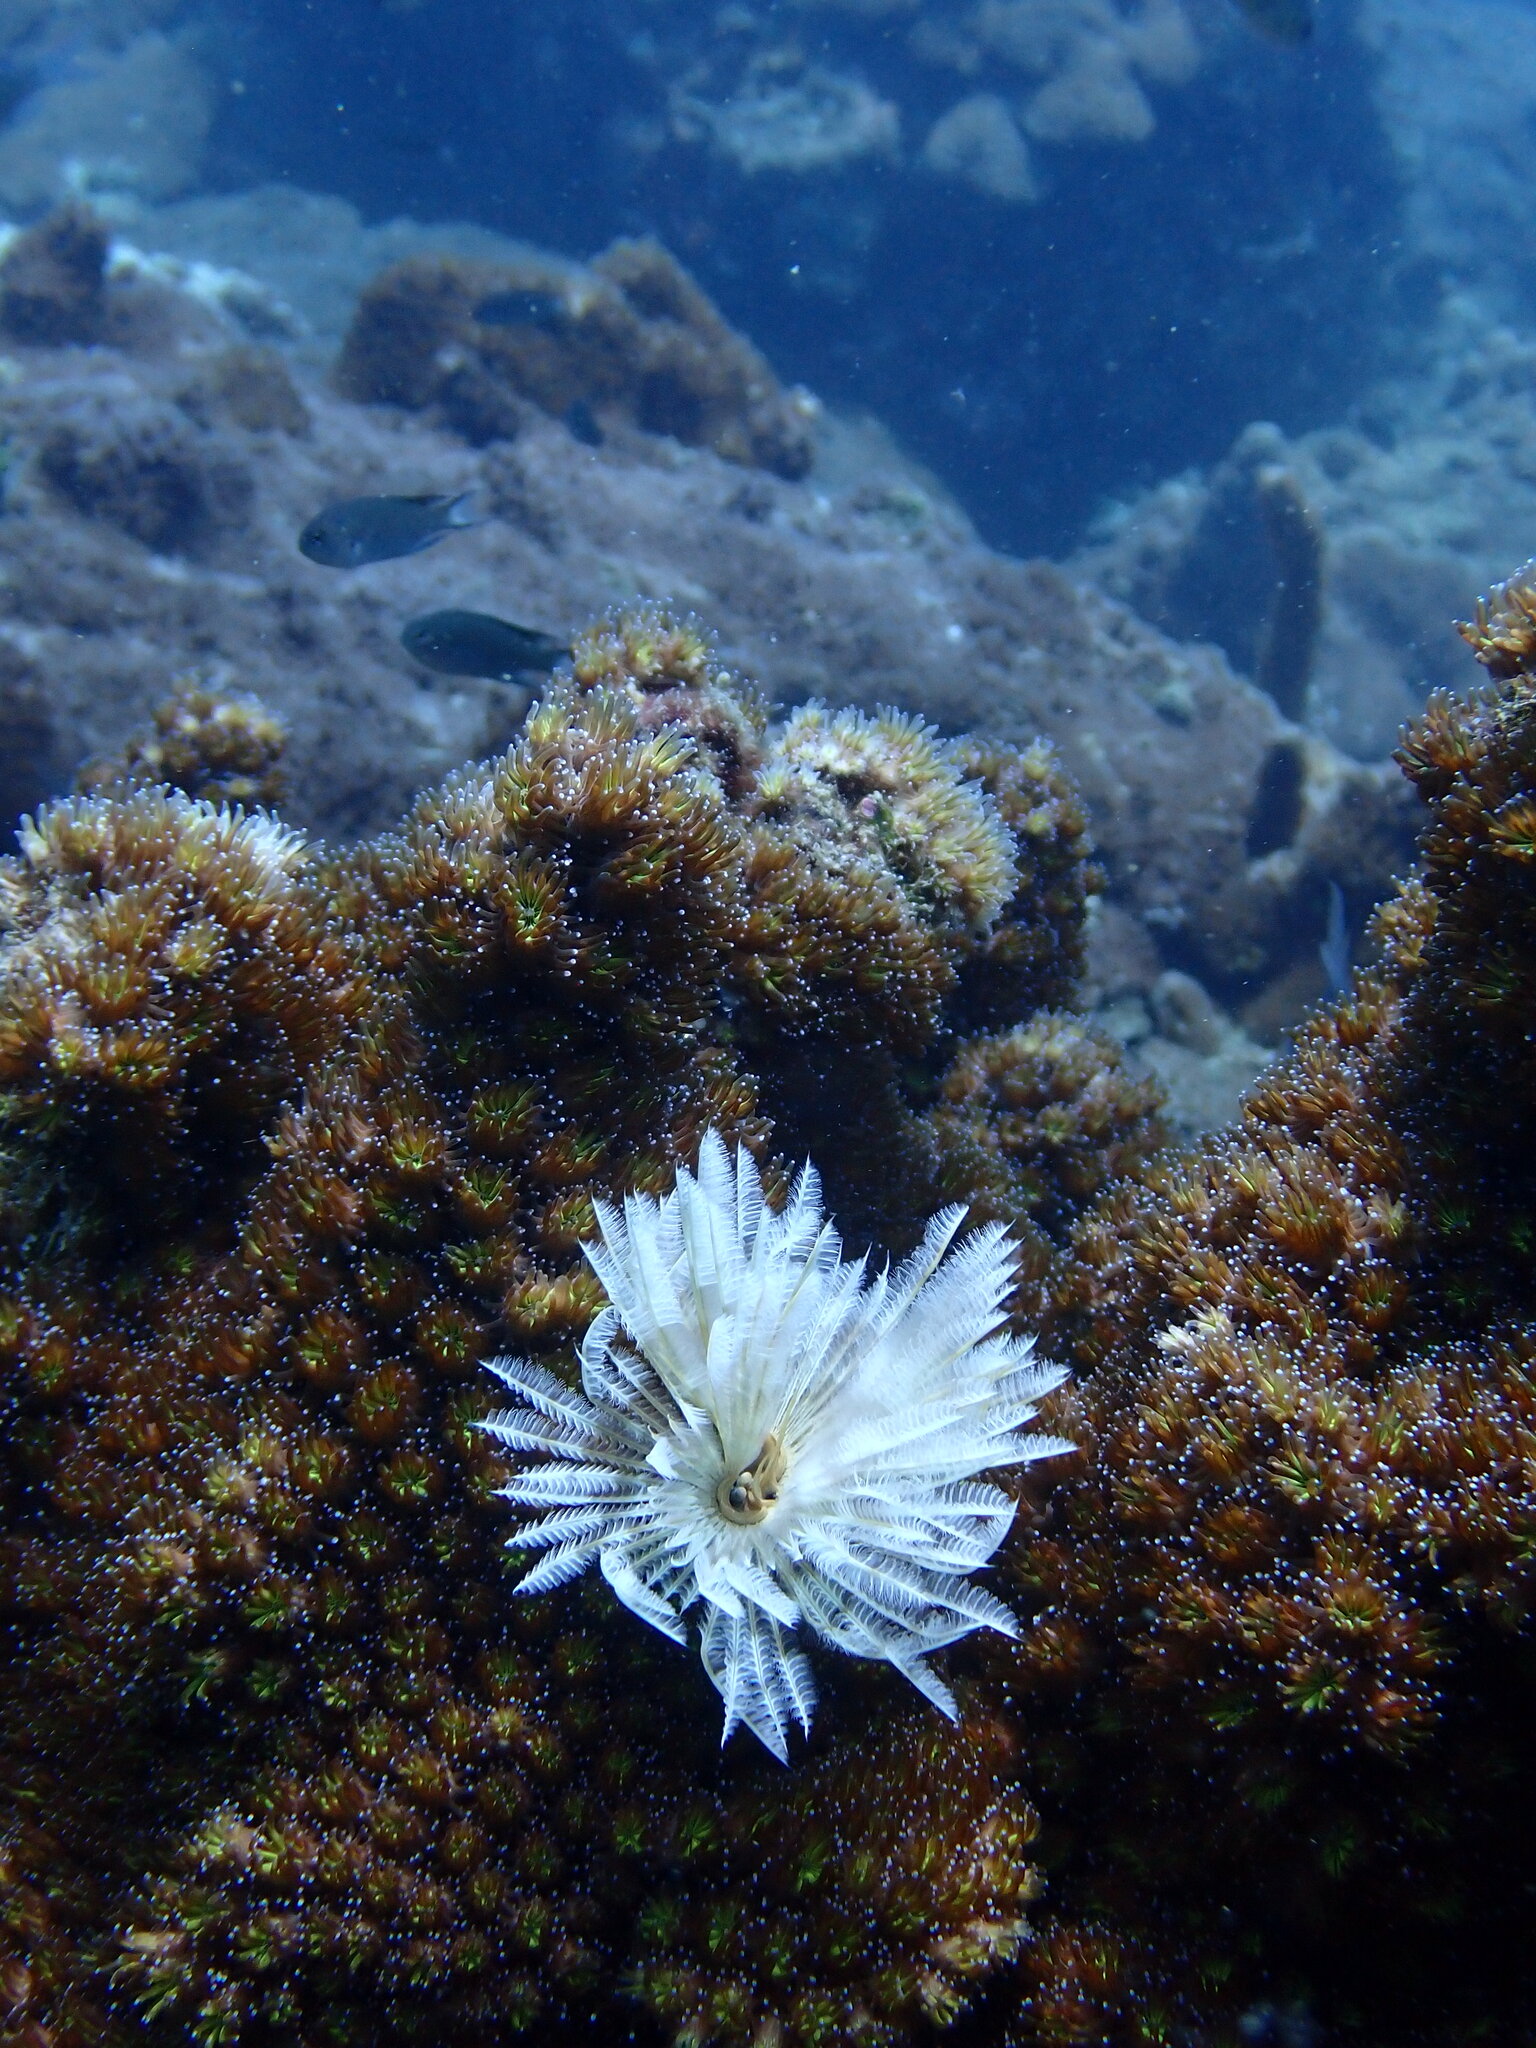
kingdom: Animalia
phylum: Cnidaria
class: Anthozoa
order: Scleractinia
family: Euphylliidae
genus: Galaxea
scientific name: Galaxea fascicularis
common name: Octopus coral
